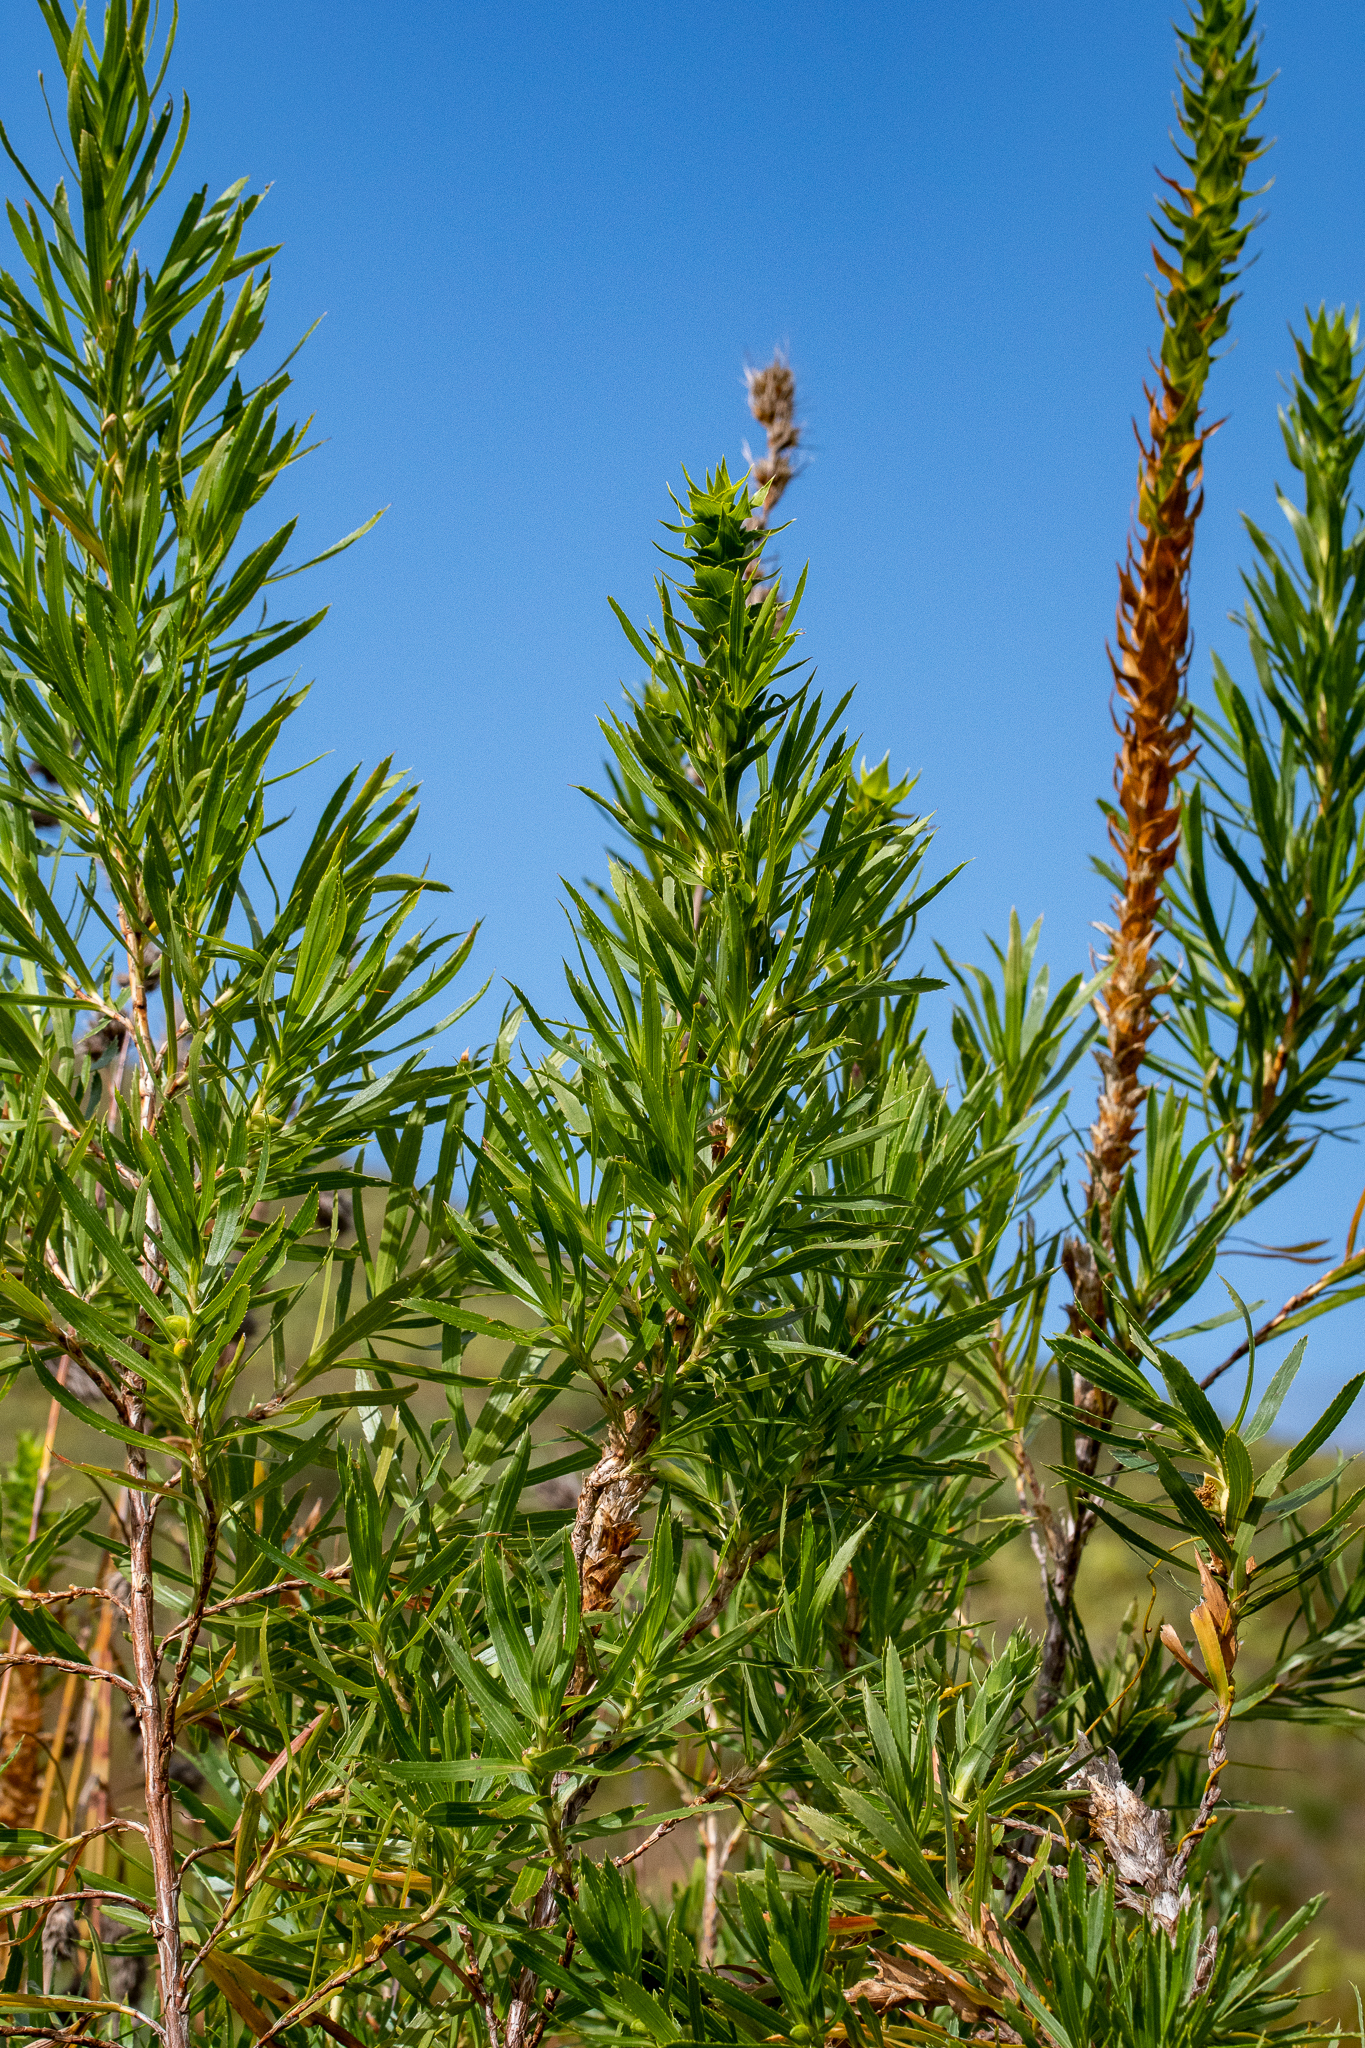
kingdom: Plantae
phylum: Tracheophyta
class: Magnoliopsida
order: Rosales
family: Rosaceae
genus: Cliffortia
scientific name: Cliffortia heterophylla
